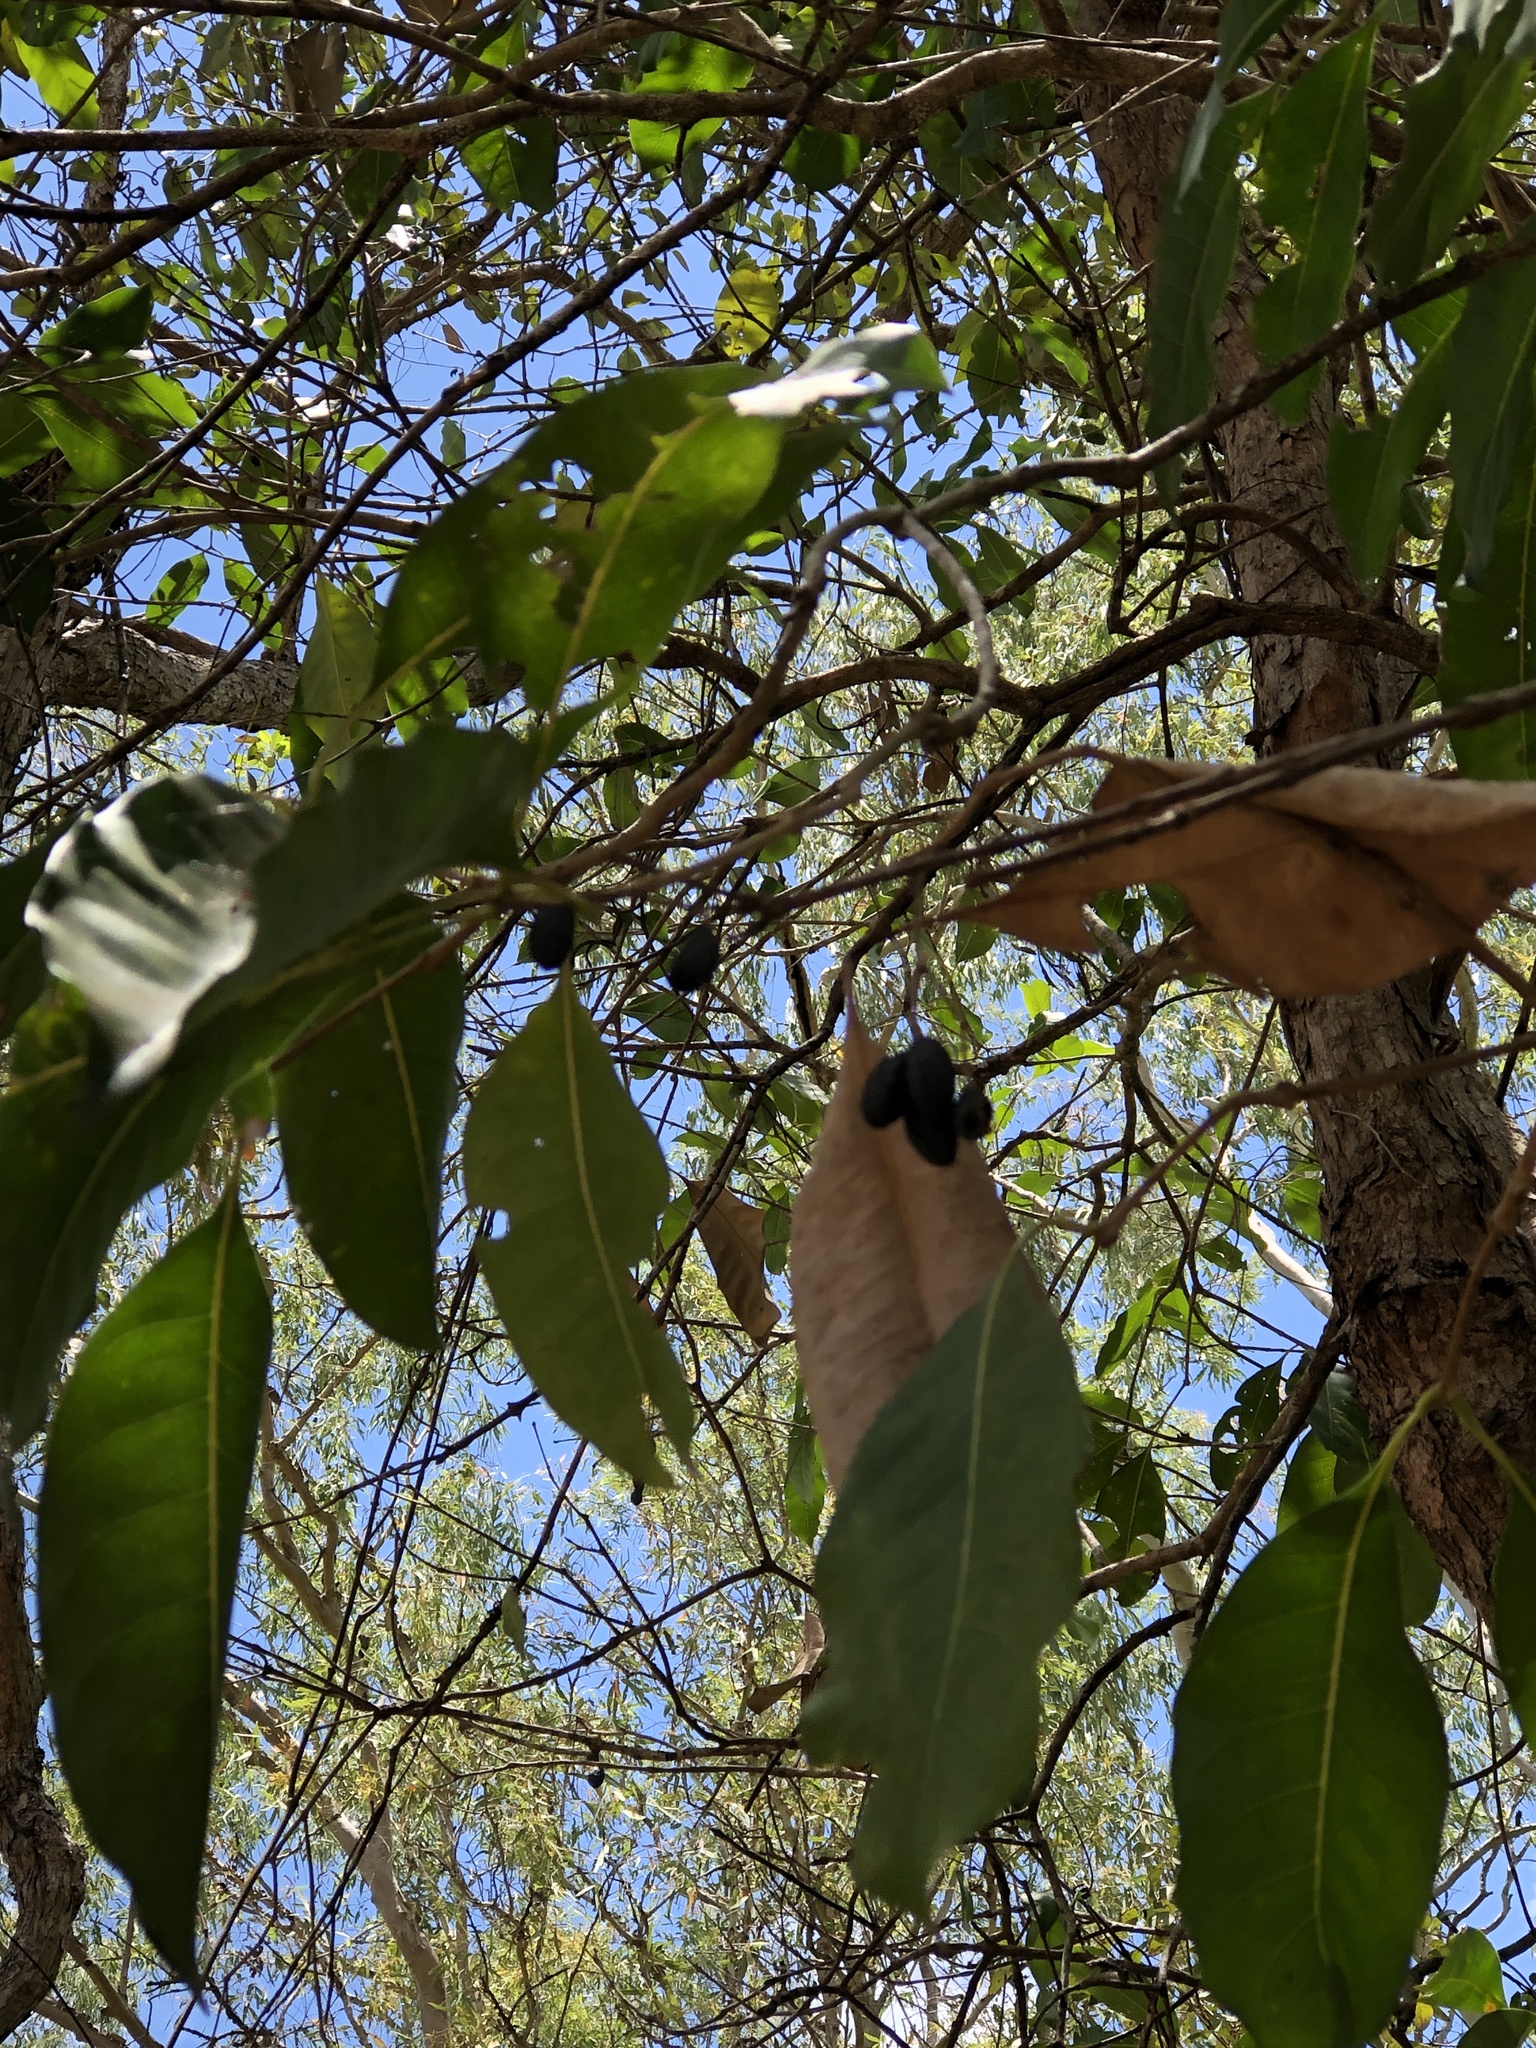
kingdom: Plantae
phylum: Tracheophyta
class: Magnoliopsida
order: Lamiales
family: Oleaceae
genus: Chionanthus
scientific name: Chionanthus ramiflorus
